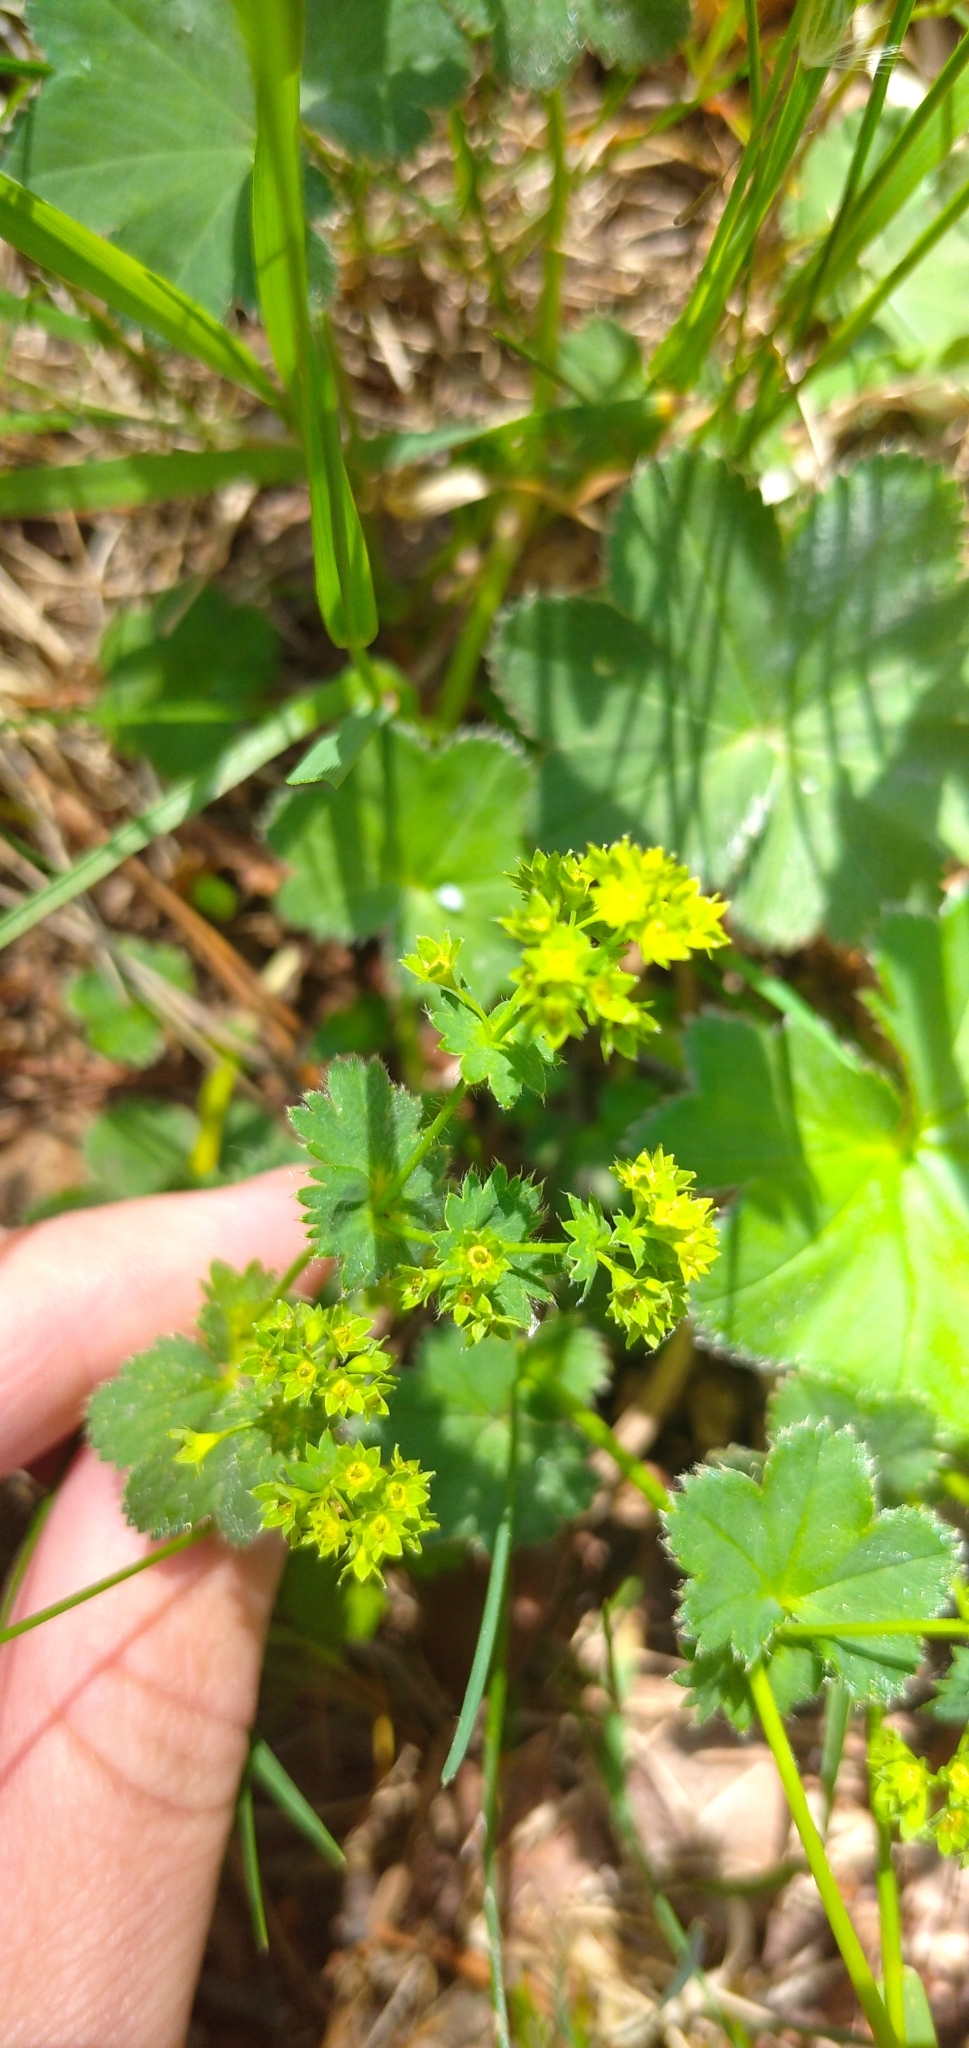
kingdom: Plantae
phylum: Tracheophyta
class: Magnoliopsida
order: Rosales
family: Rosaceae
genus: Alchemilla
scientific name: Alchemilla
